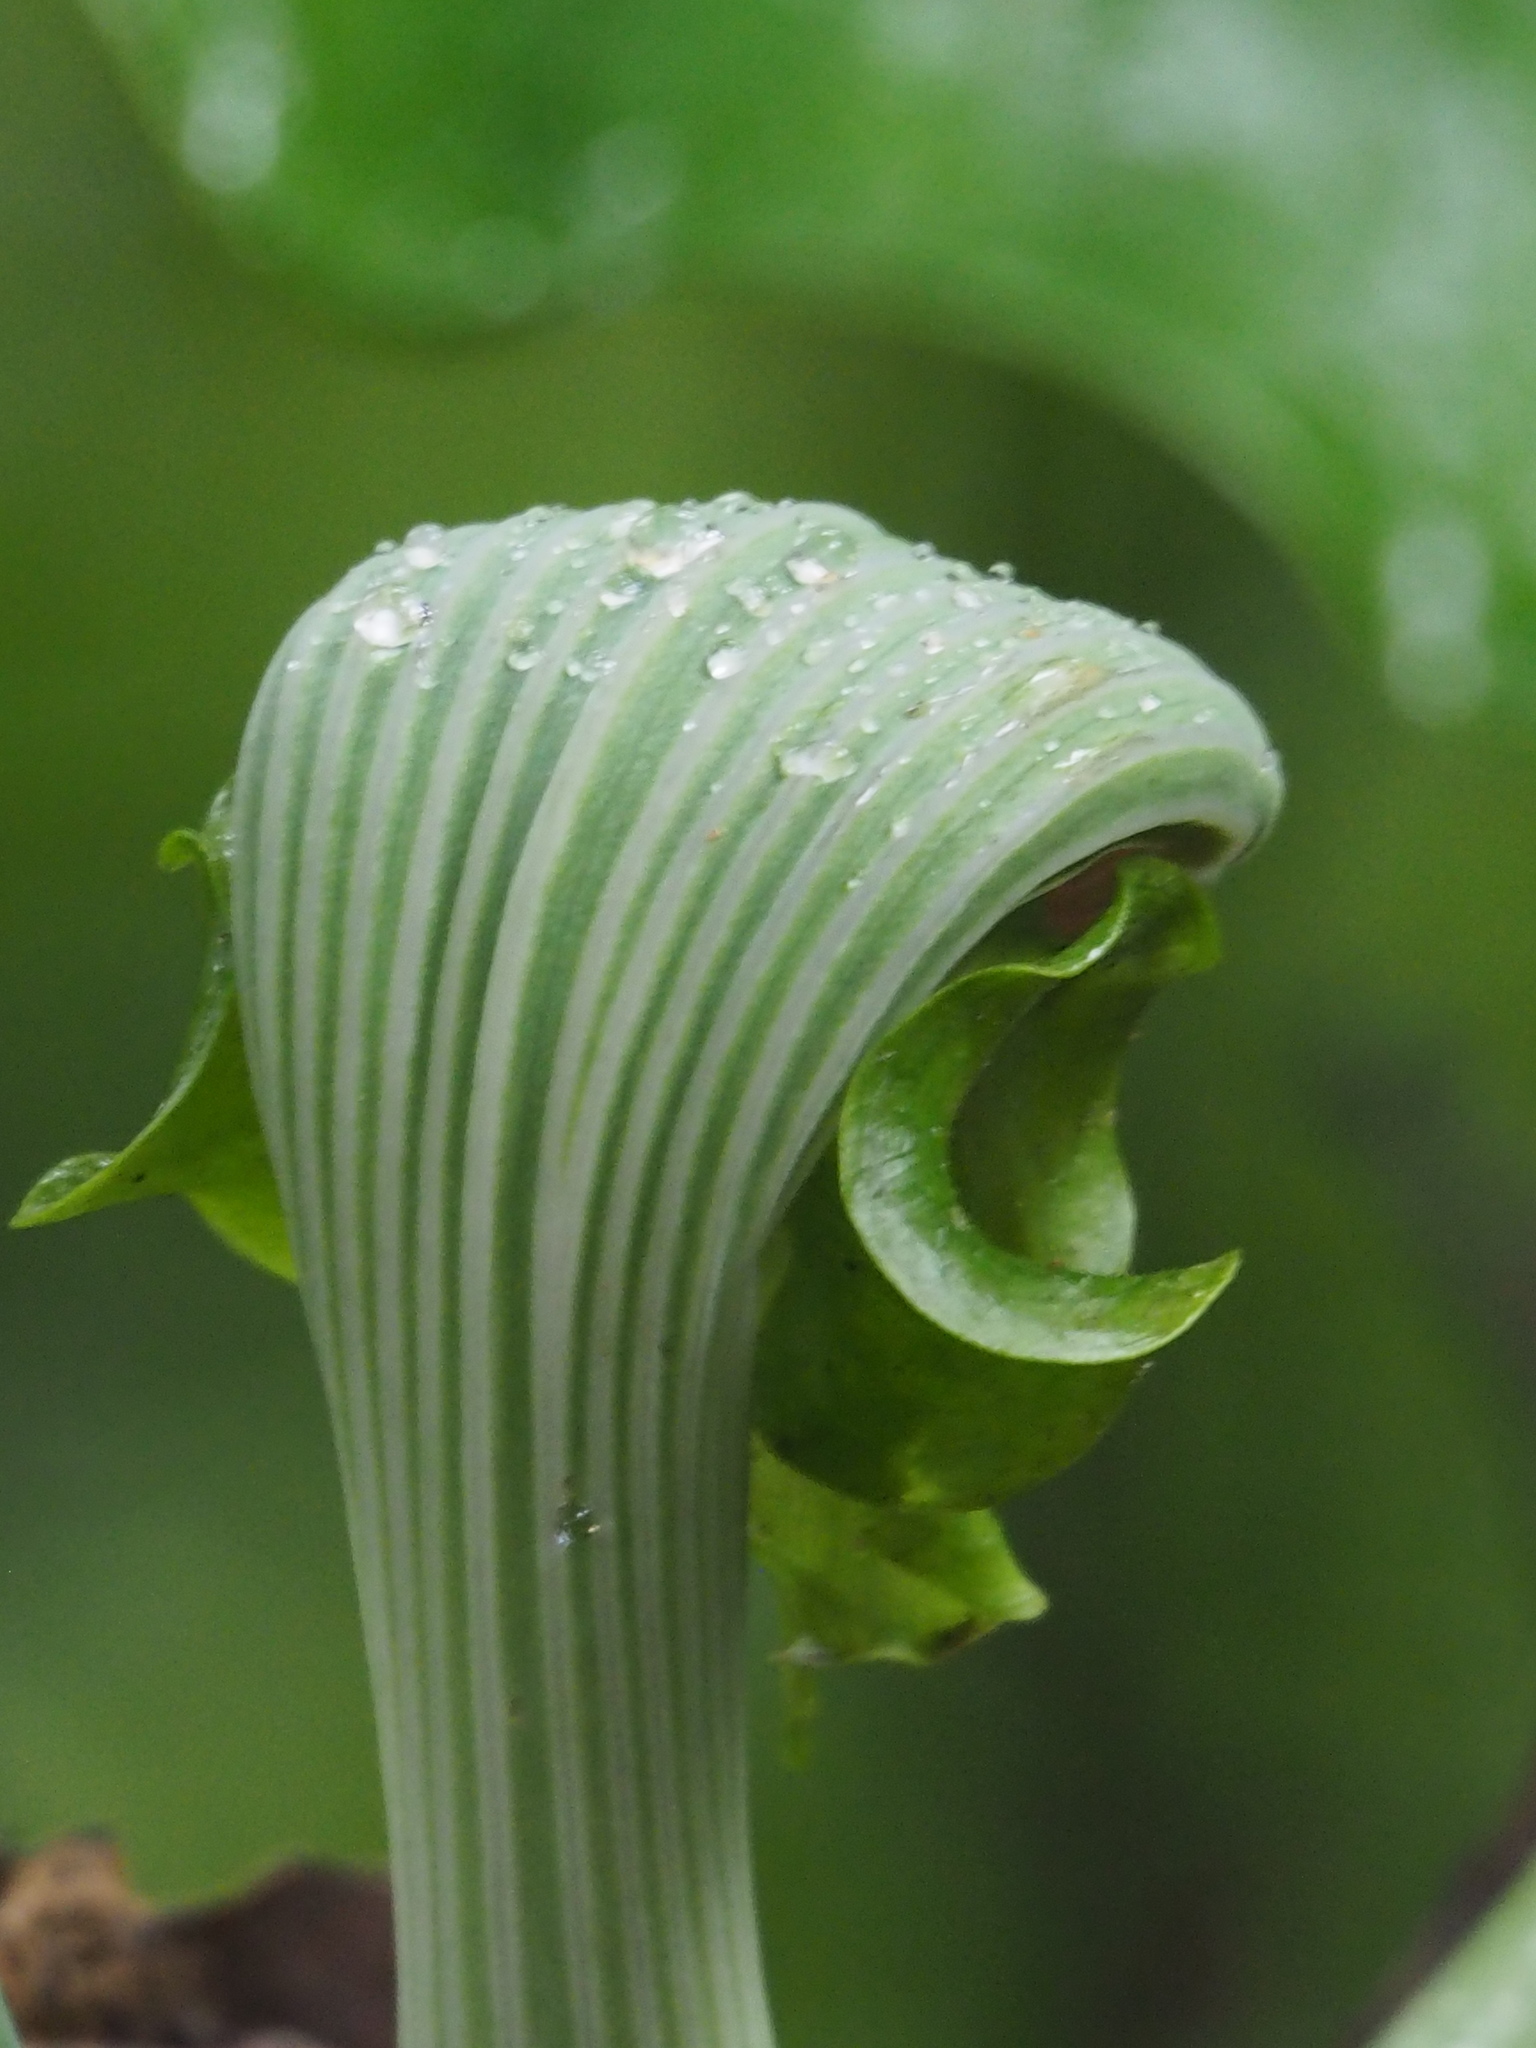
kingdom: Plantae
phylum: Tracheophyta
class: Liliopsida
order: Alismatales
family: Araceae
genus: Arisaema
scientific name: Arisaema ringens
